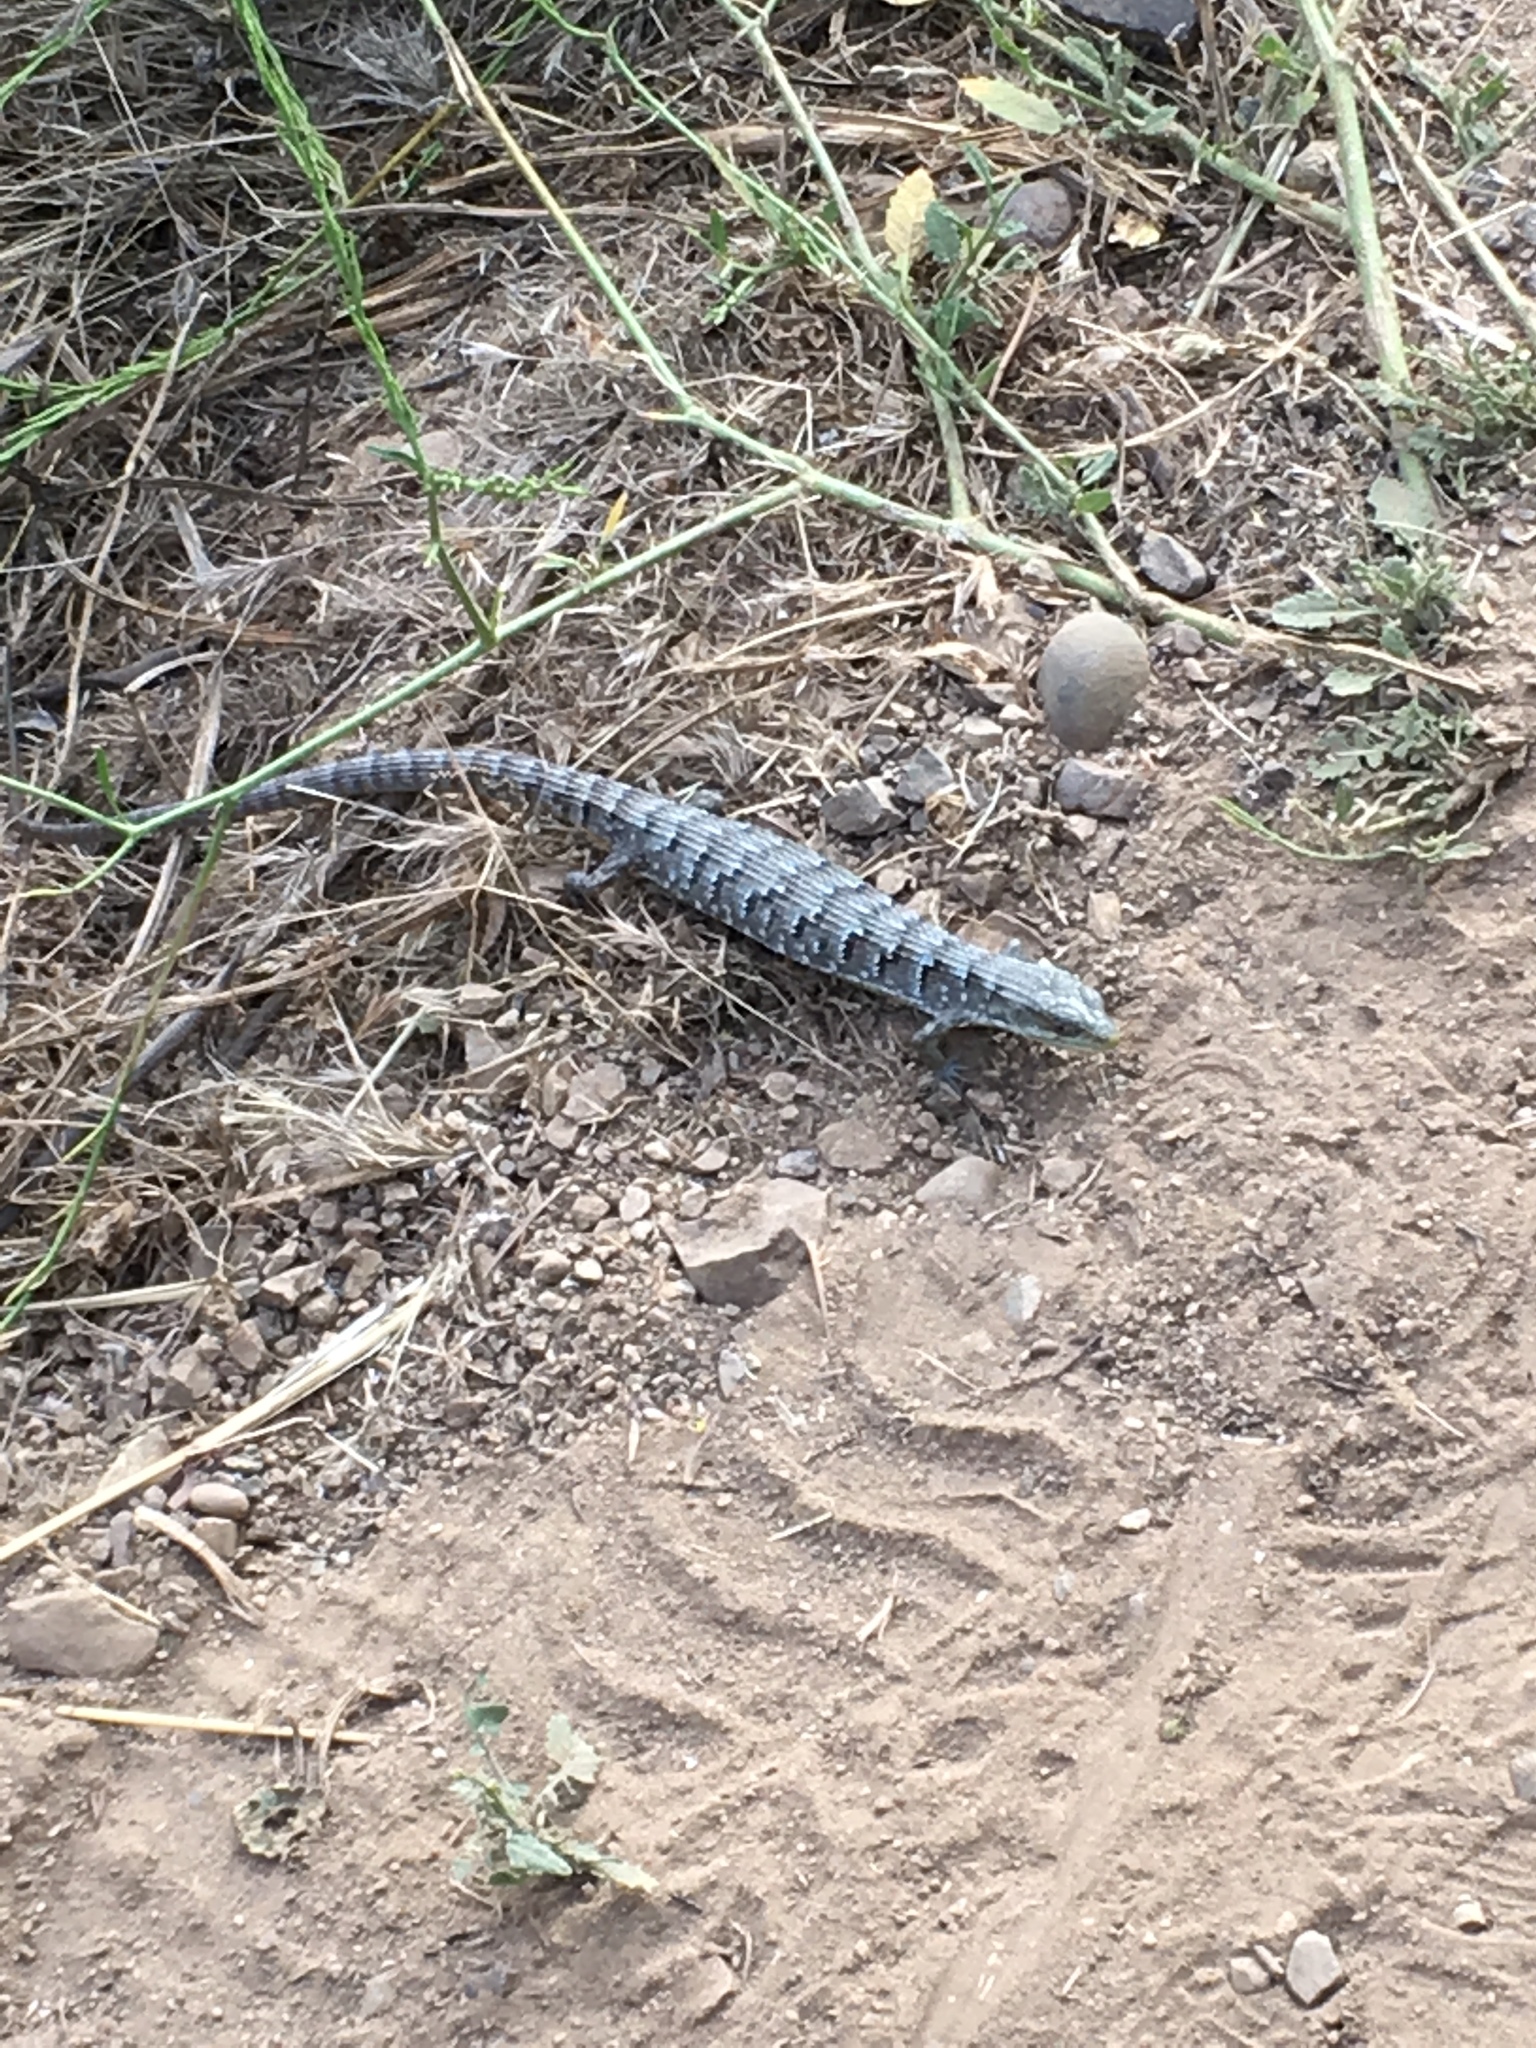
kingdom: Animalia
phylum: Chordata
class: Squamata
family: Anguidae
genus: Elgaria
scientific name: Elgaria multicarinata
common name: Southern alligator lizard
